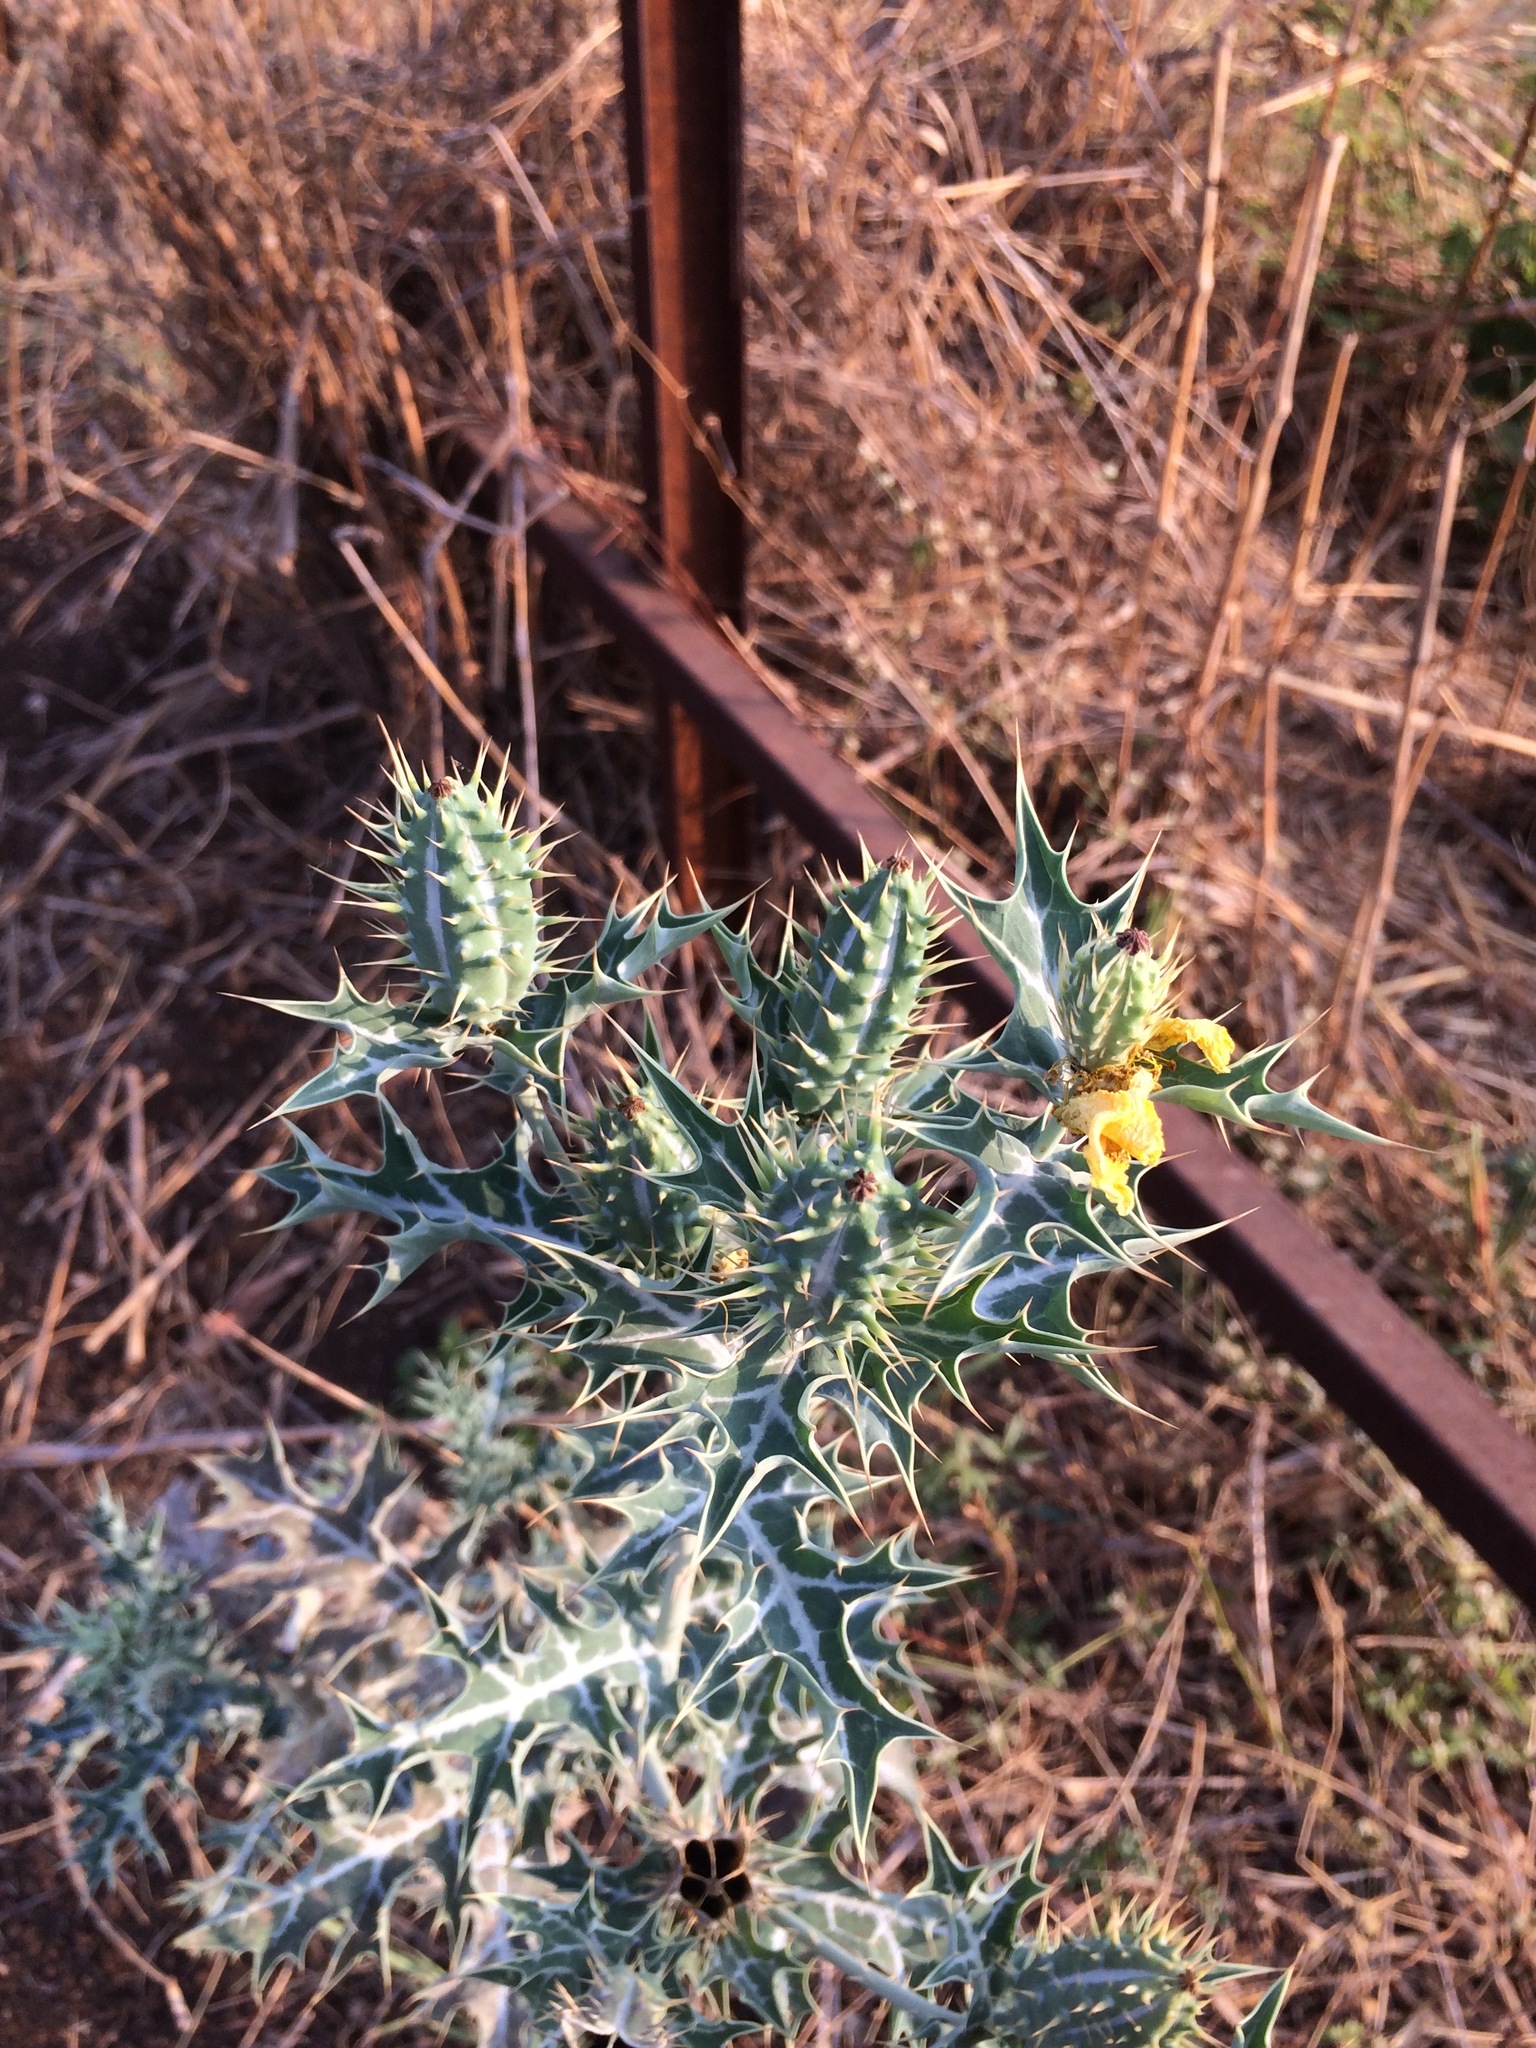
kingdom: Plantae
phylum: Tracheophyta
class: Magnoliopsida
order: Ranunculales
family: Papaveraceae
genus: Argemone
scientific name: Argemone mexicana
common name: Mexican poppy
